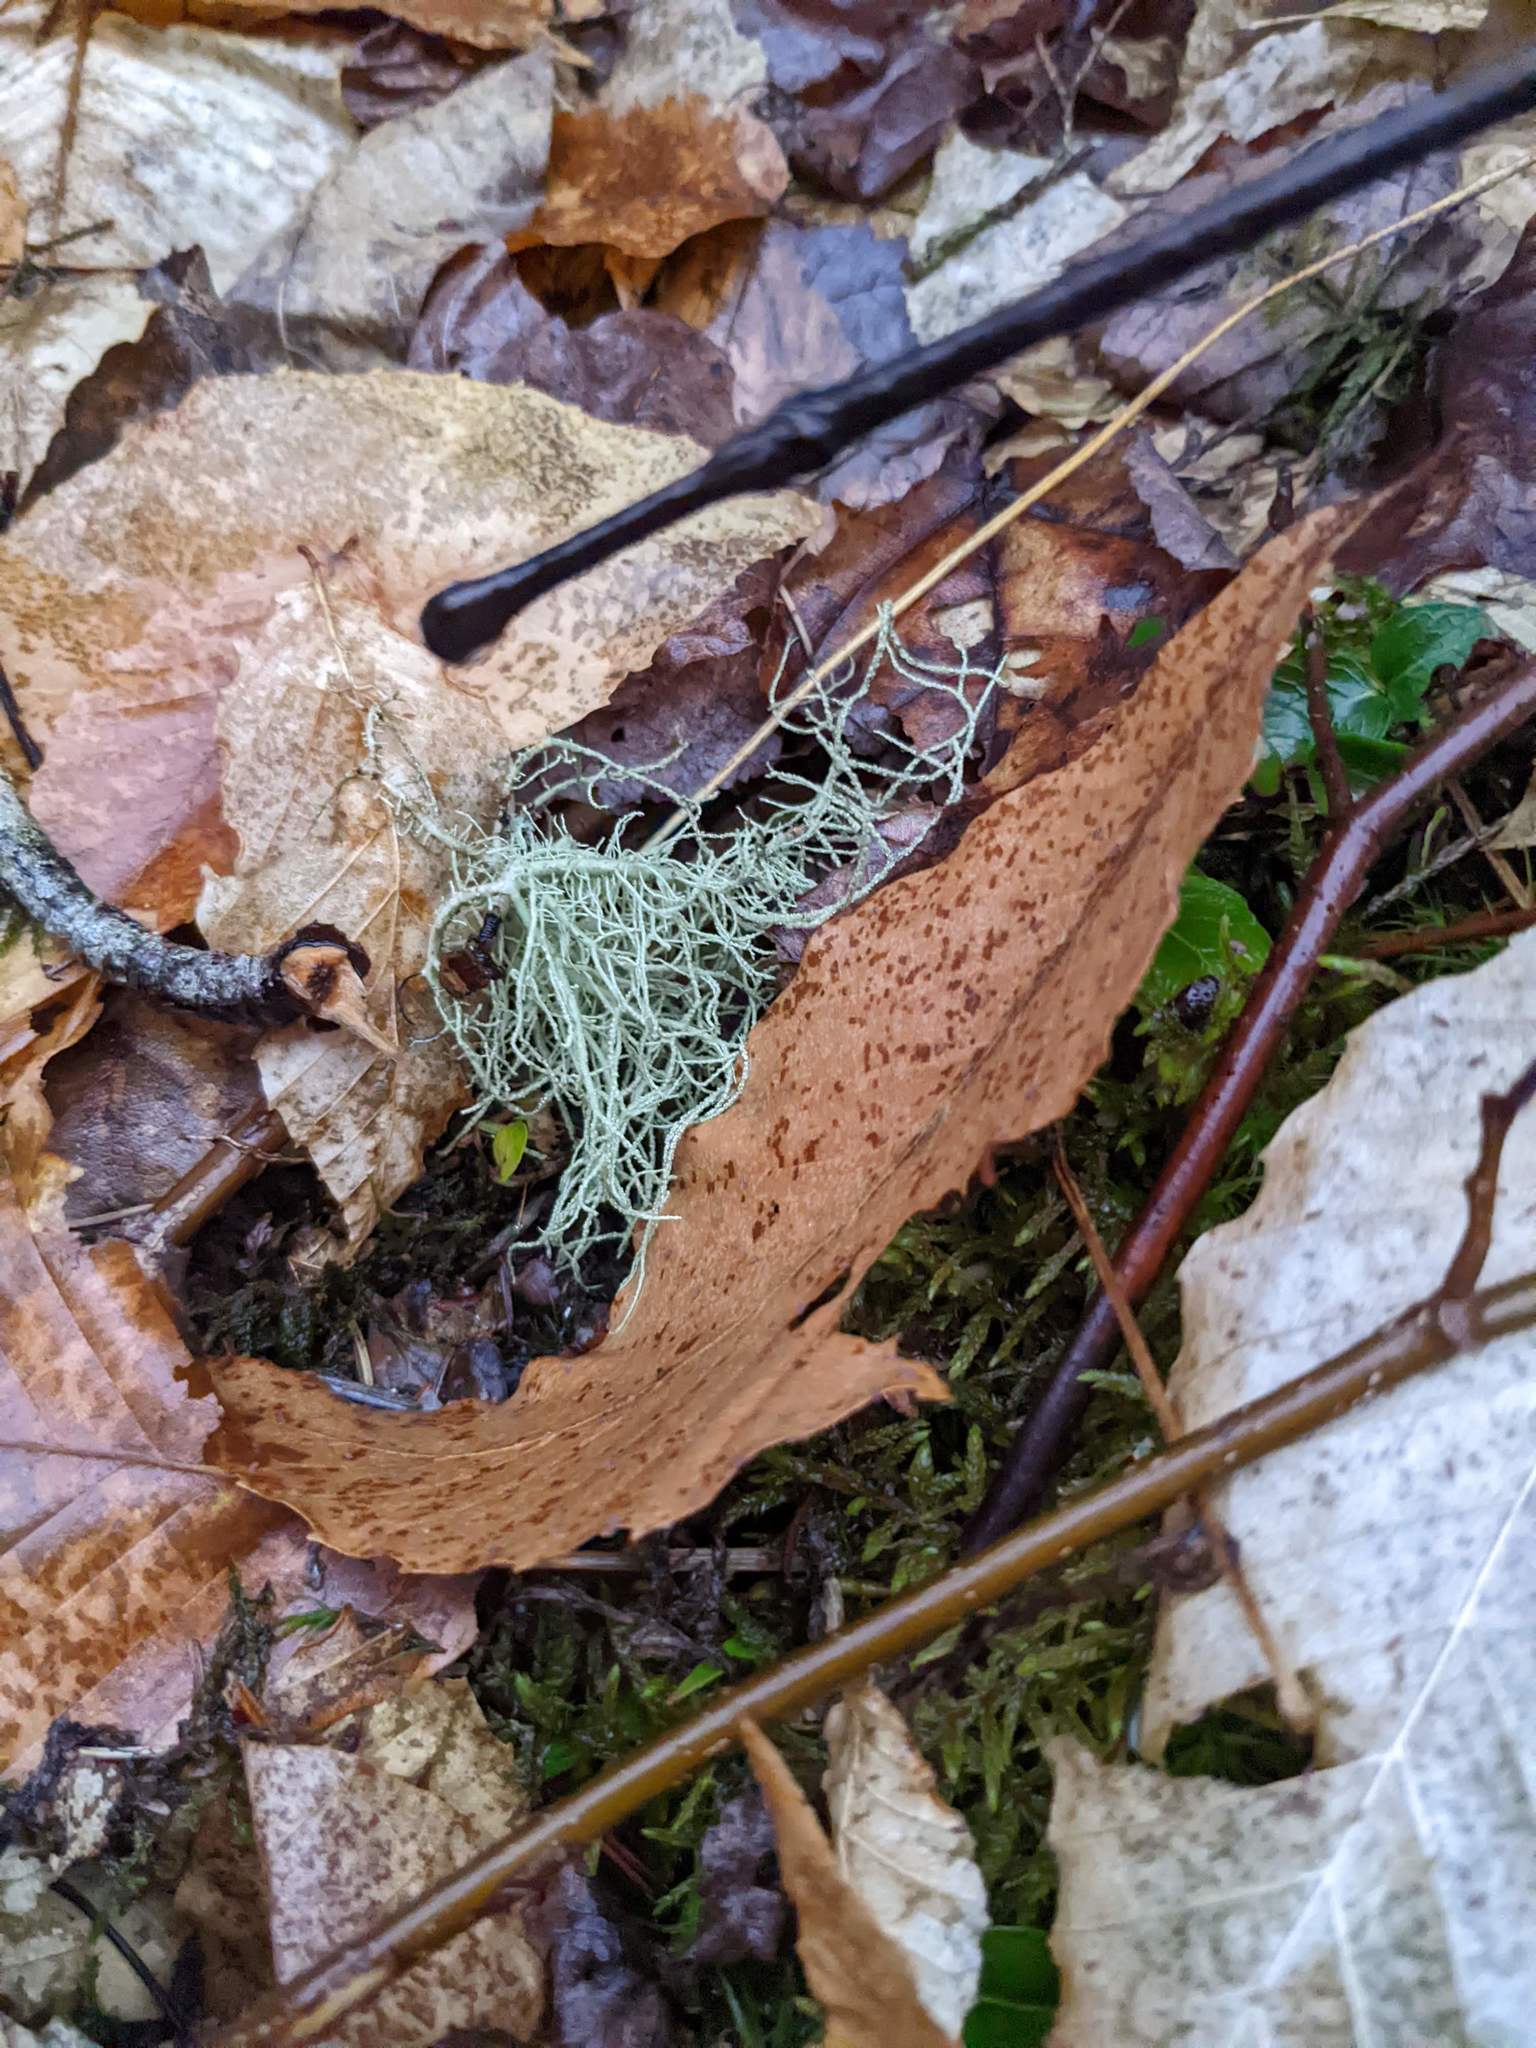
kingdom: Plantae
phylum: Tracheophyta
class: Magnoliopsida
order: Fagales
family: Fagaceae
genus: Fagus
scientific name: Fagus grandifolia
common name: American beech
